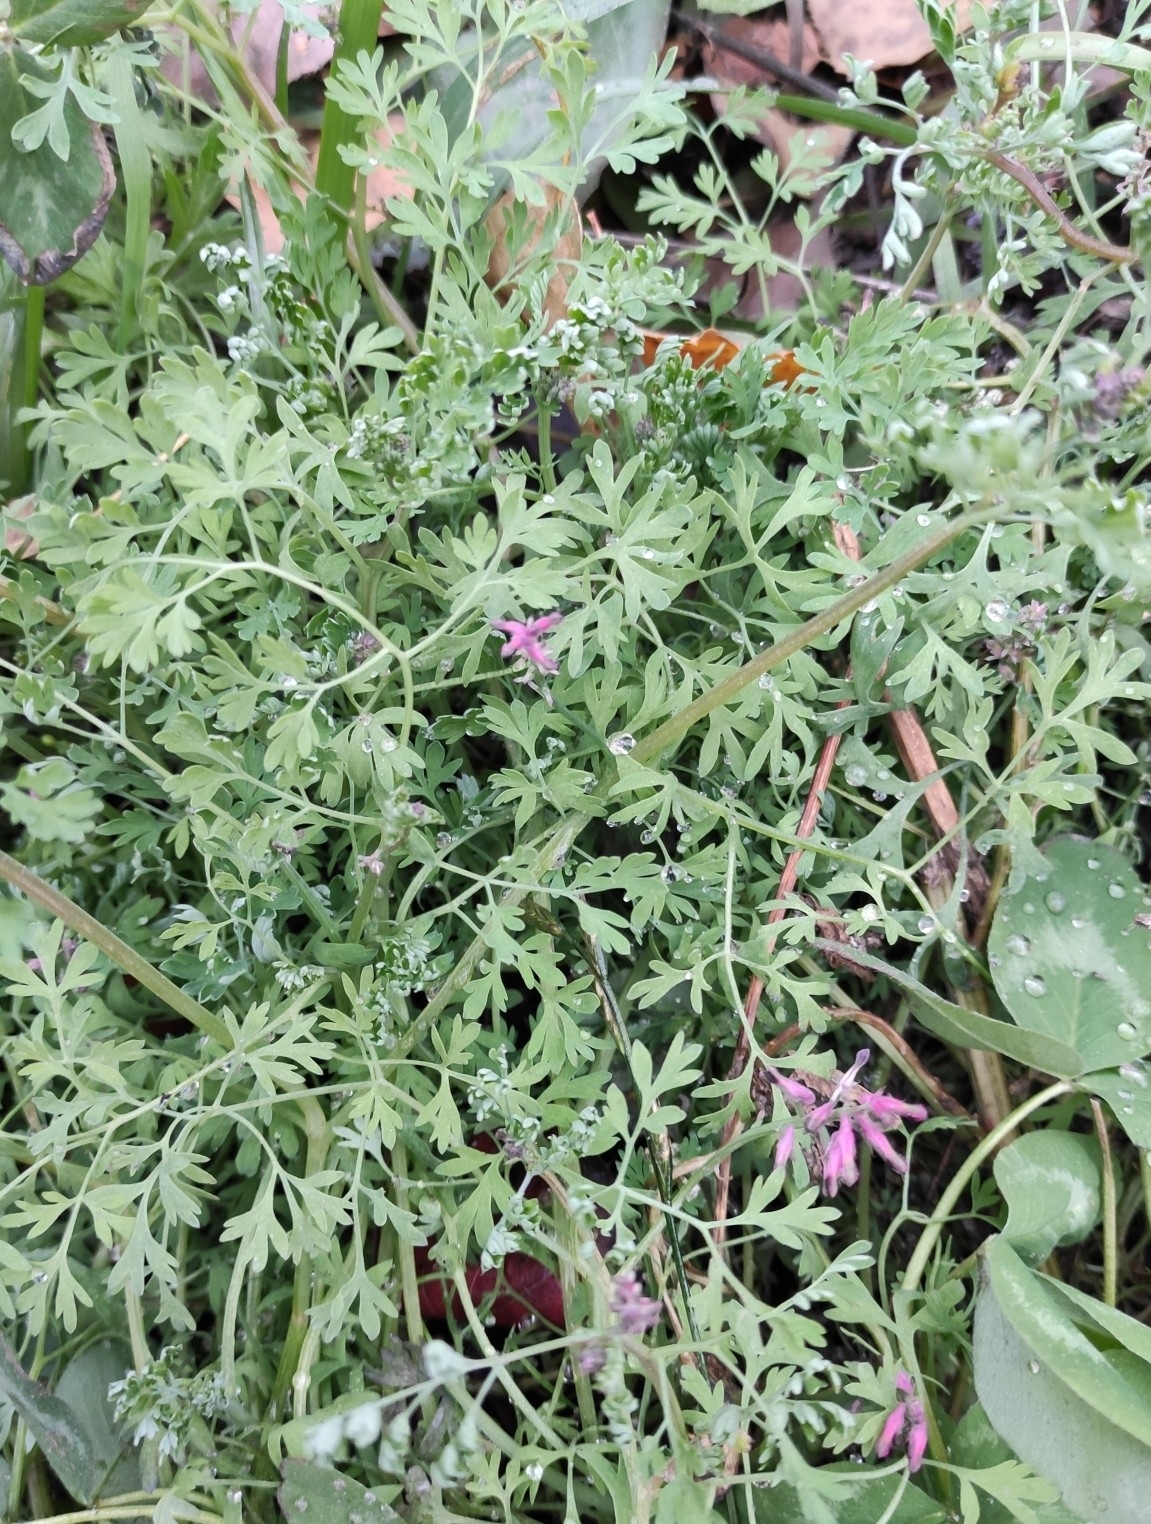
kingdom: Plantae
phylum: Tracheophyta
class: Magnoliopsida
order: Ranunculales
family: Papaveraceae
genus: Fumaria
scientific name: Fumaria officinalis
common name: Common fumitory
